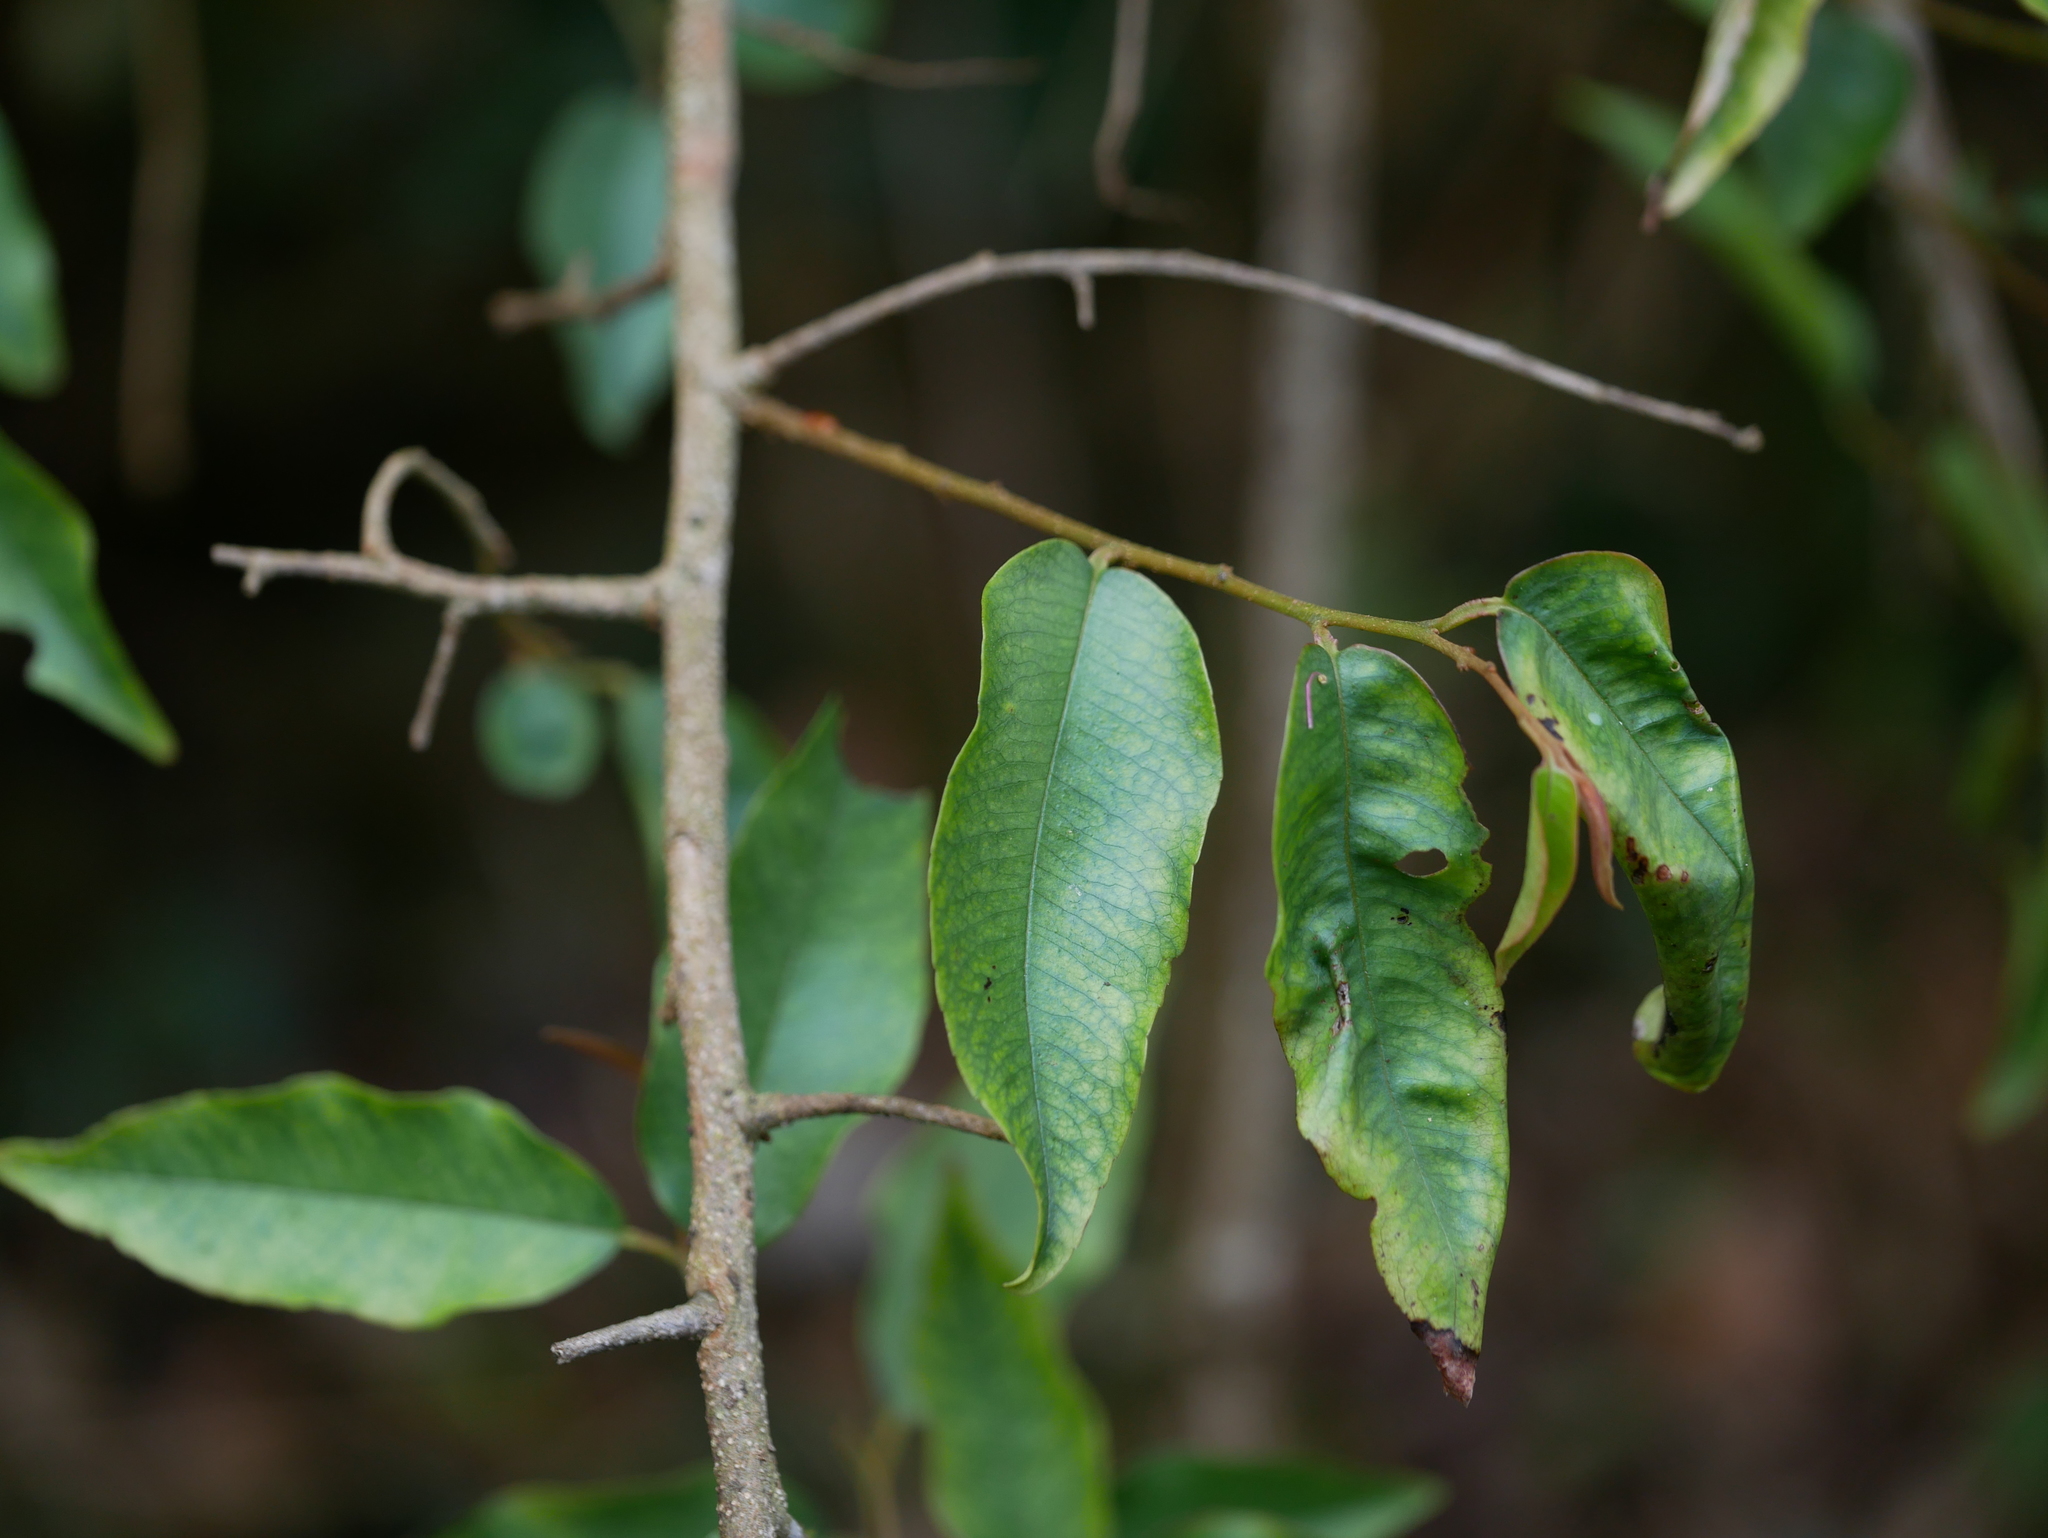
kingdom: Plantae
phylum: Tracheophyta
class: Magnoliopsida
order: Ericales
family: Primulaceae
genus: Embelia
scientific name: Embelia vestita
